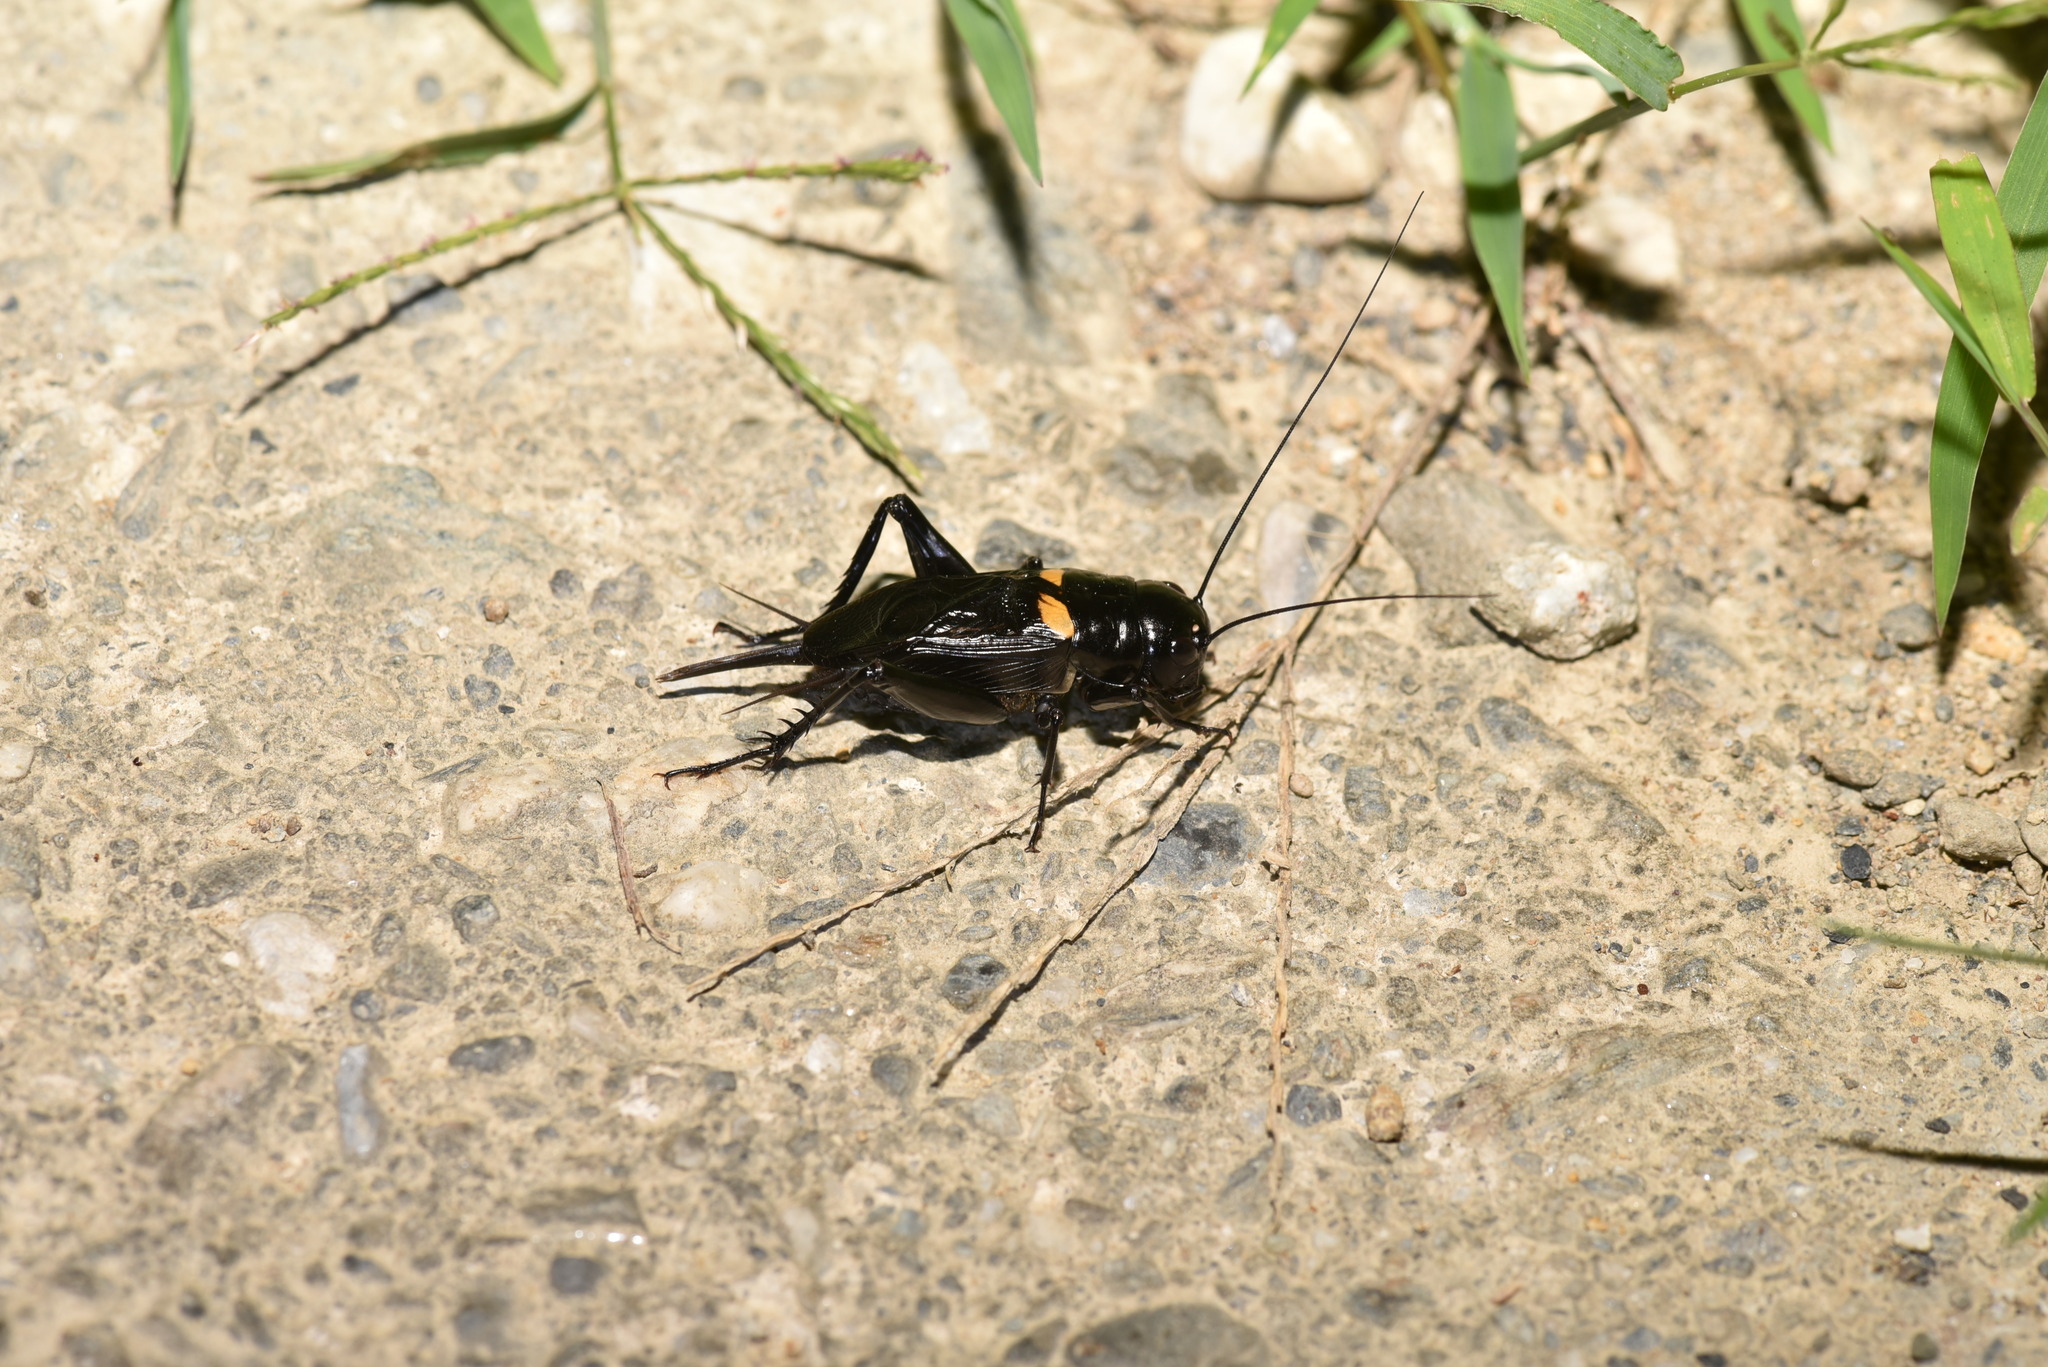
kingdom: Animalia
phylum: Arthropoda
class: Insecta
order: Orthoptera
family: Gryllidae
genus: Gryllus
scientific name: Gryllus bimaculatus
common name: Two-spotted cricket
